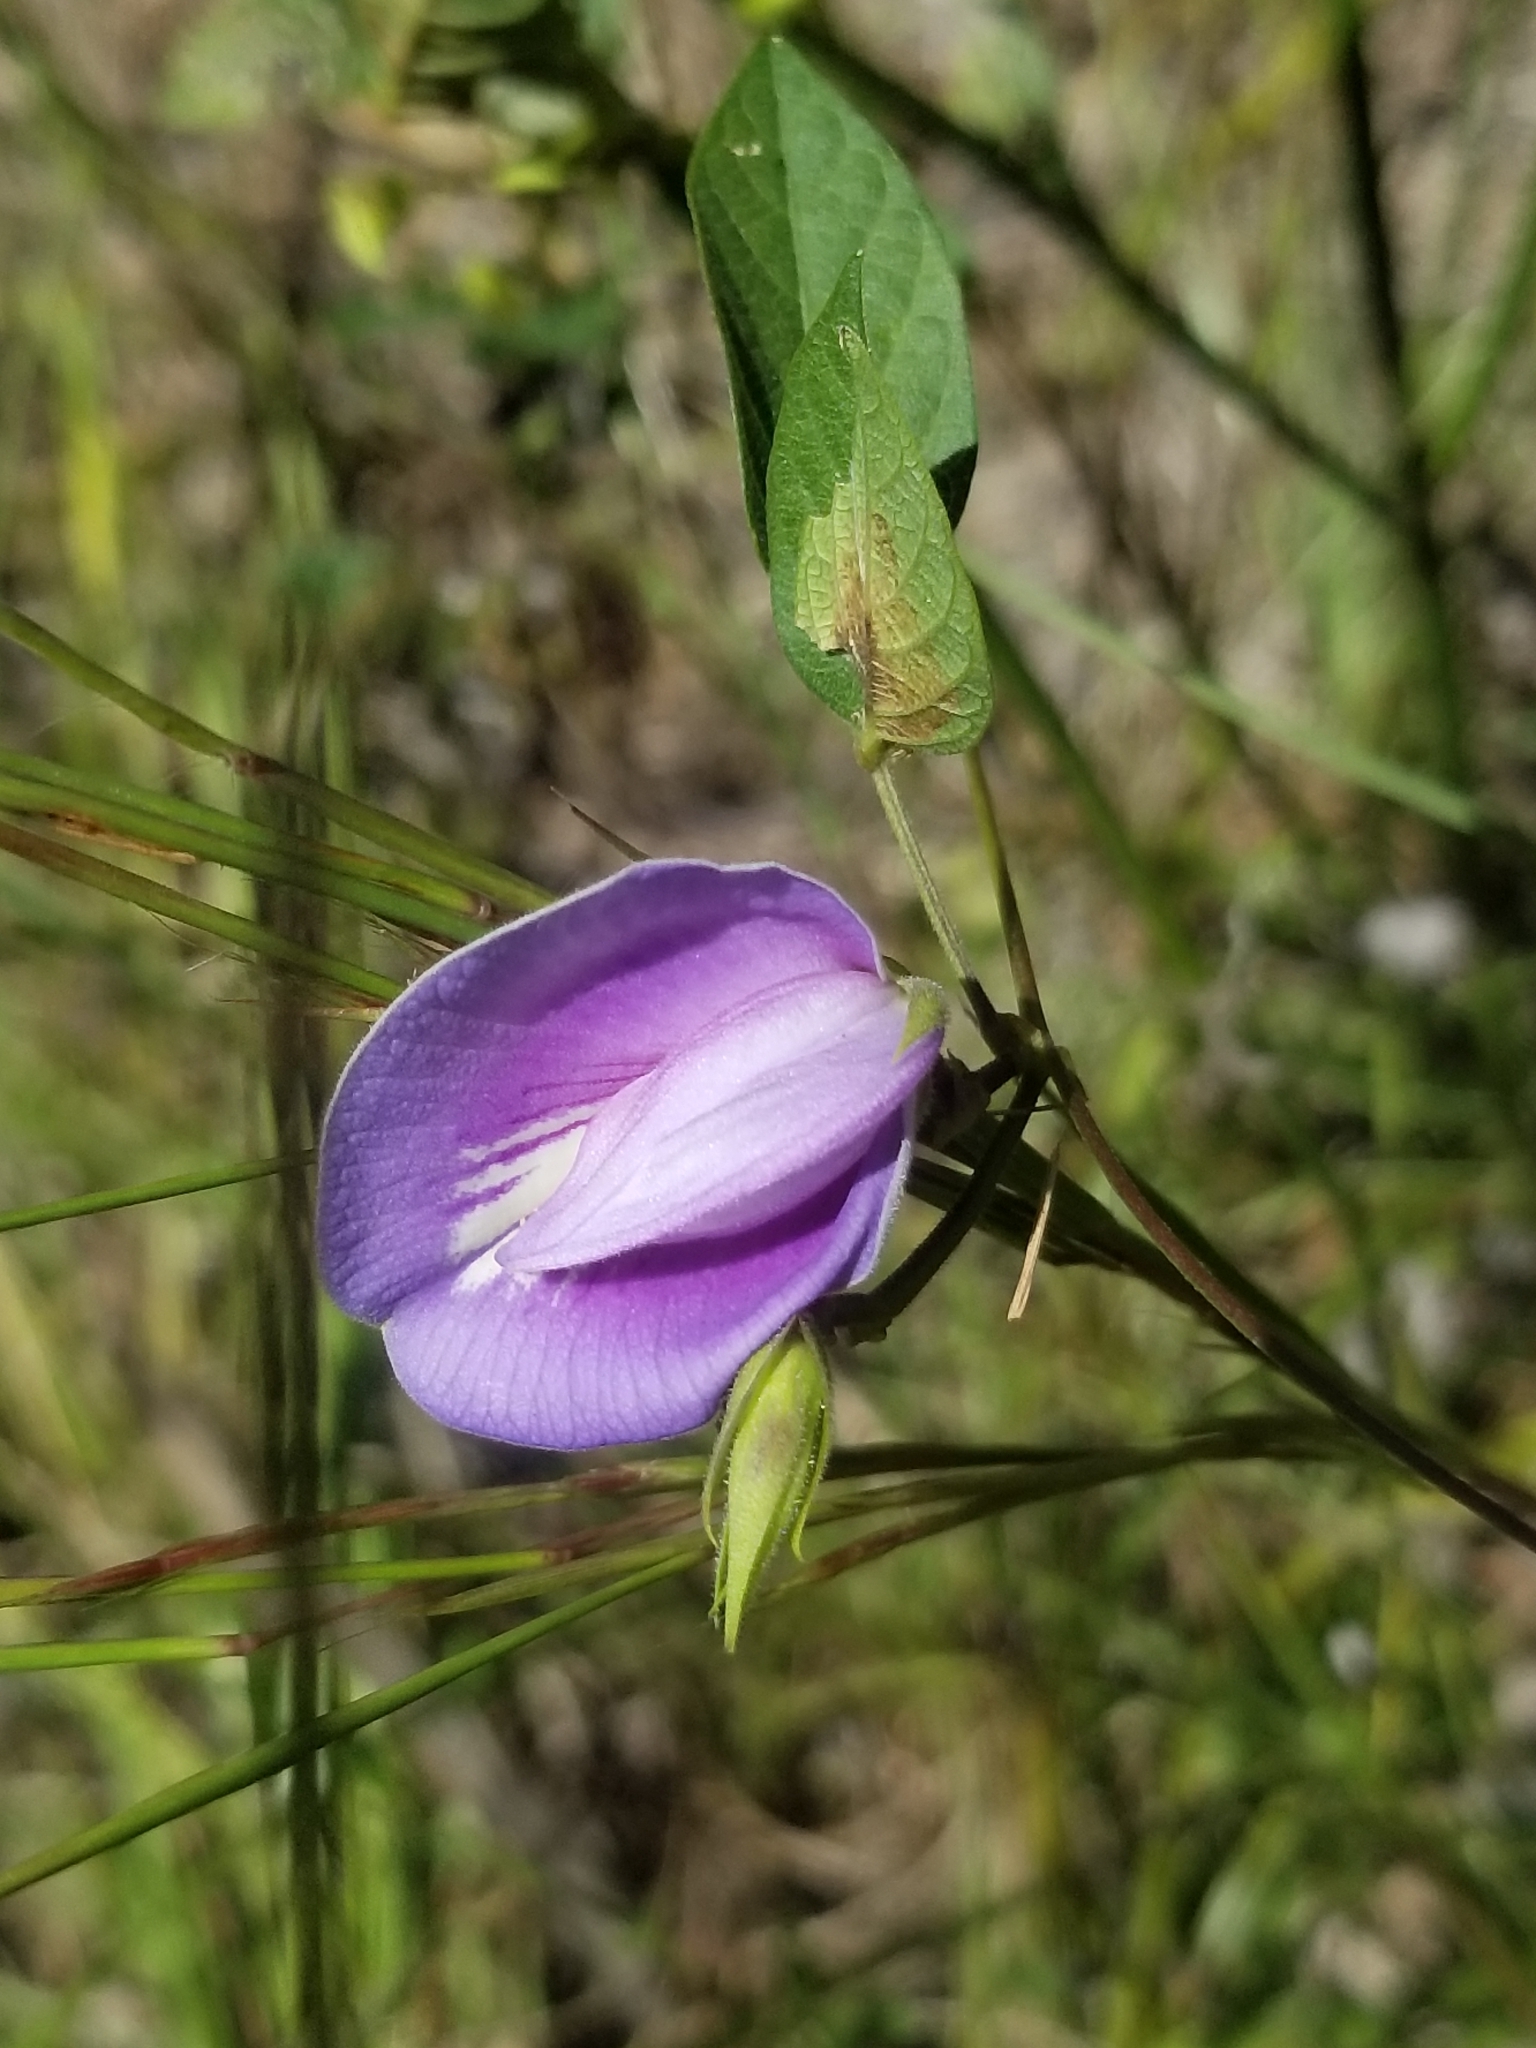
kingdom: Plantae
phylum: Tracheophyta
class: Magnoliopsida
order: Fabales
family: Fabaceae
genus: Centrosema
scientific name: Centrosema virginianum
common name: Butterfly-pea
